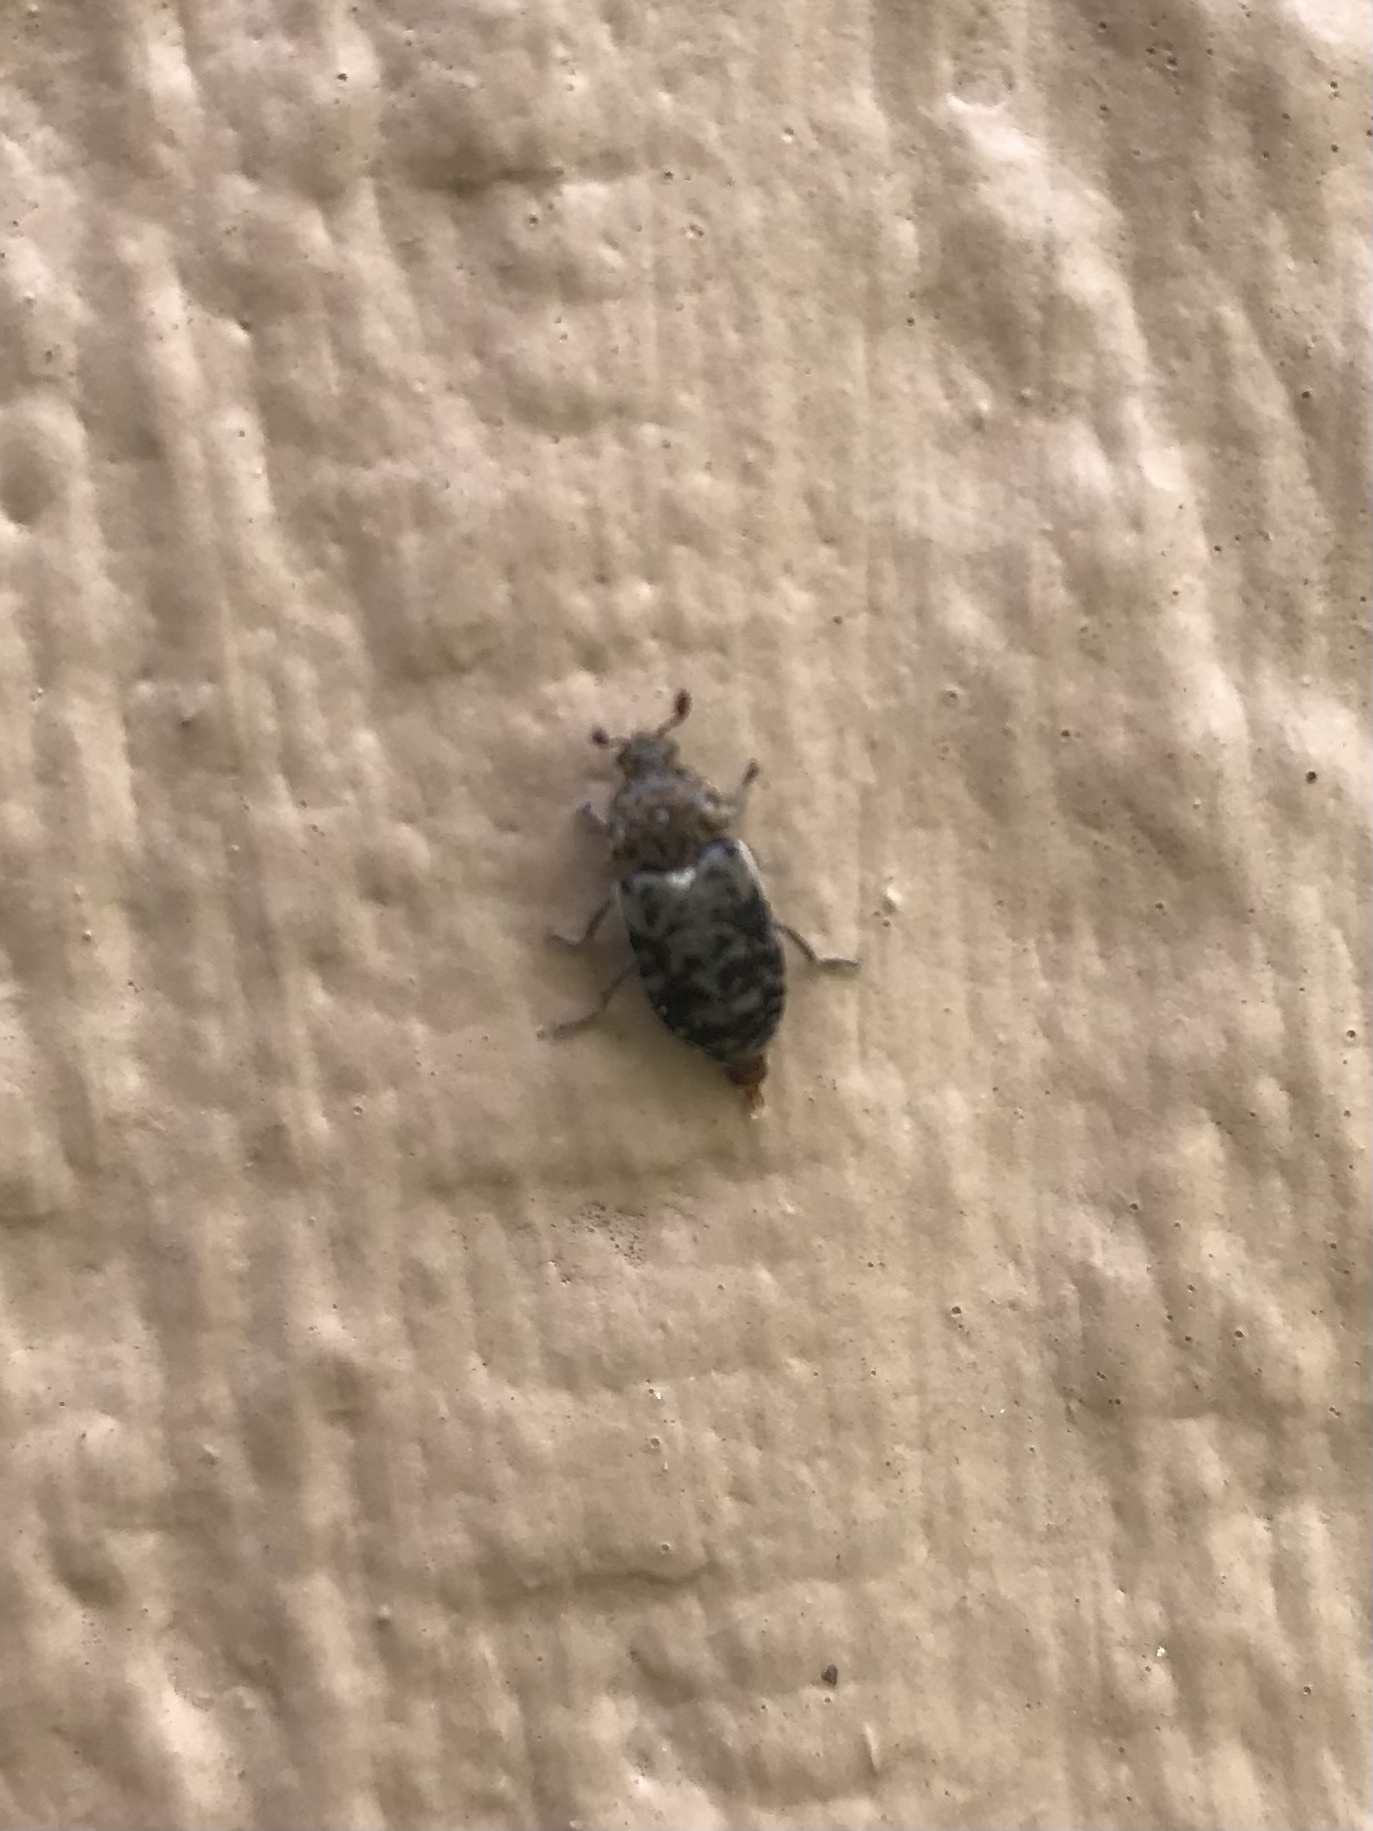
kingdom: Animalia
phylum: Arthropoda
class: Insecta
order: Coleoptera
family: Dermestidae
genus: Dermestes
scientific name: Dermestes caninus
